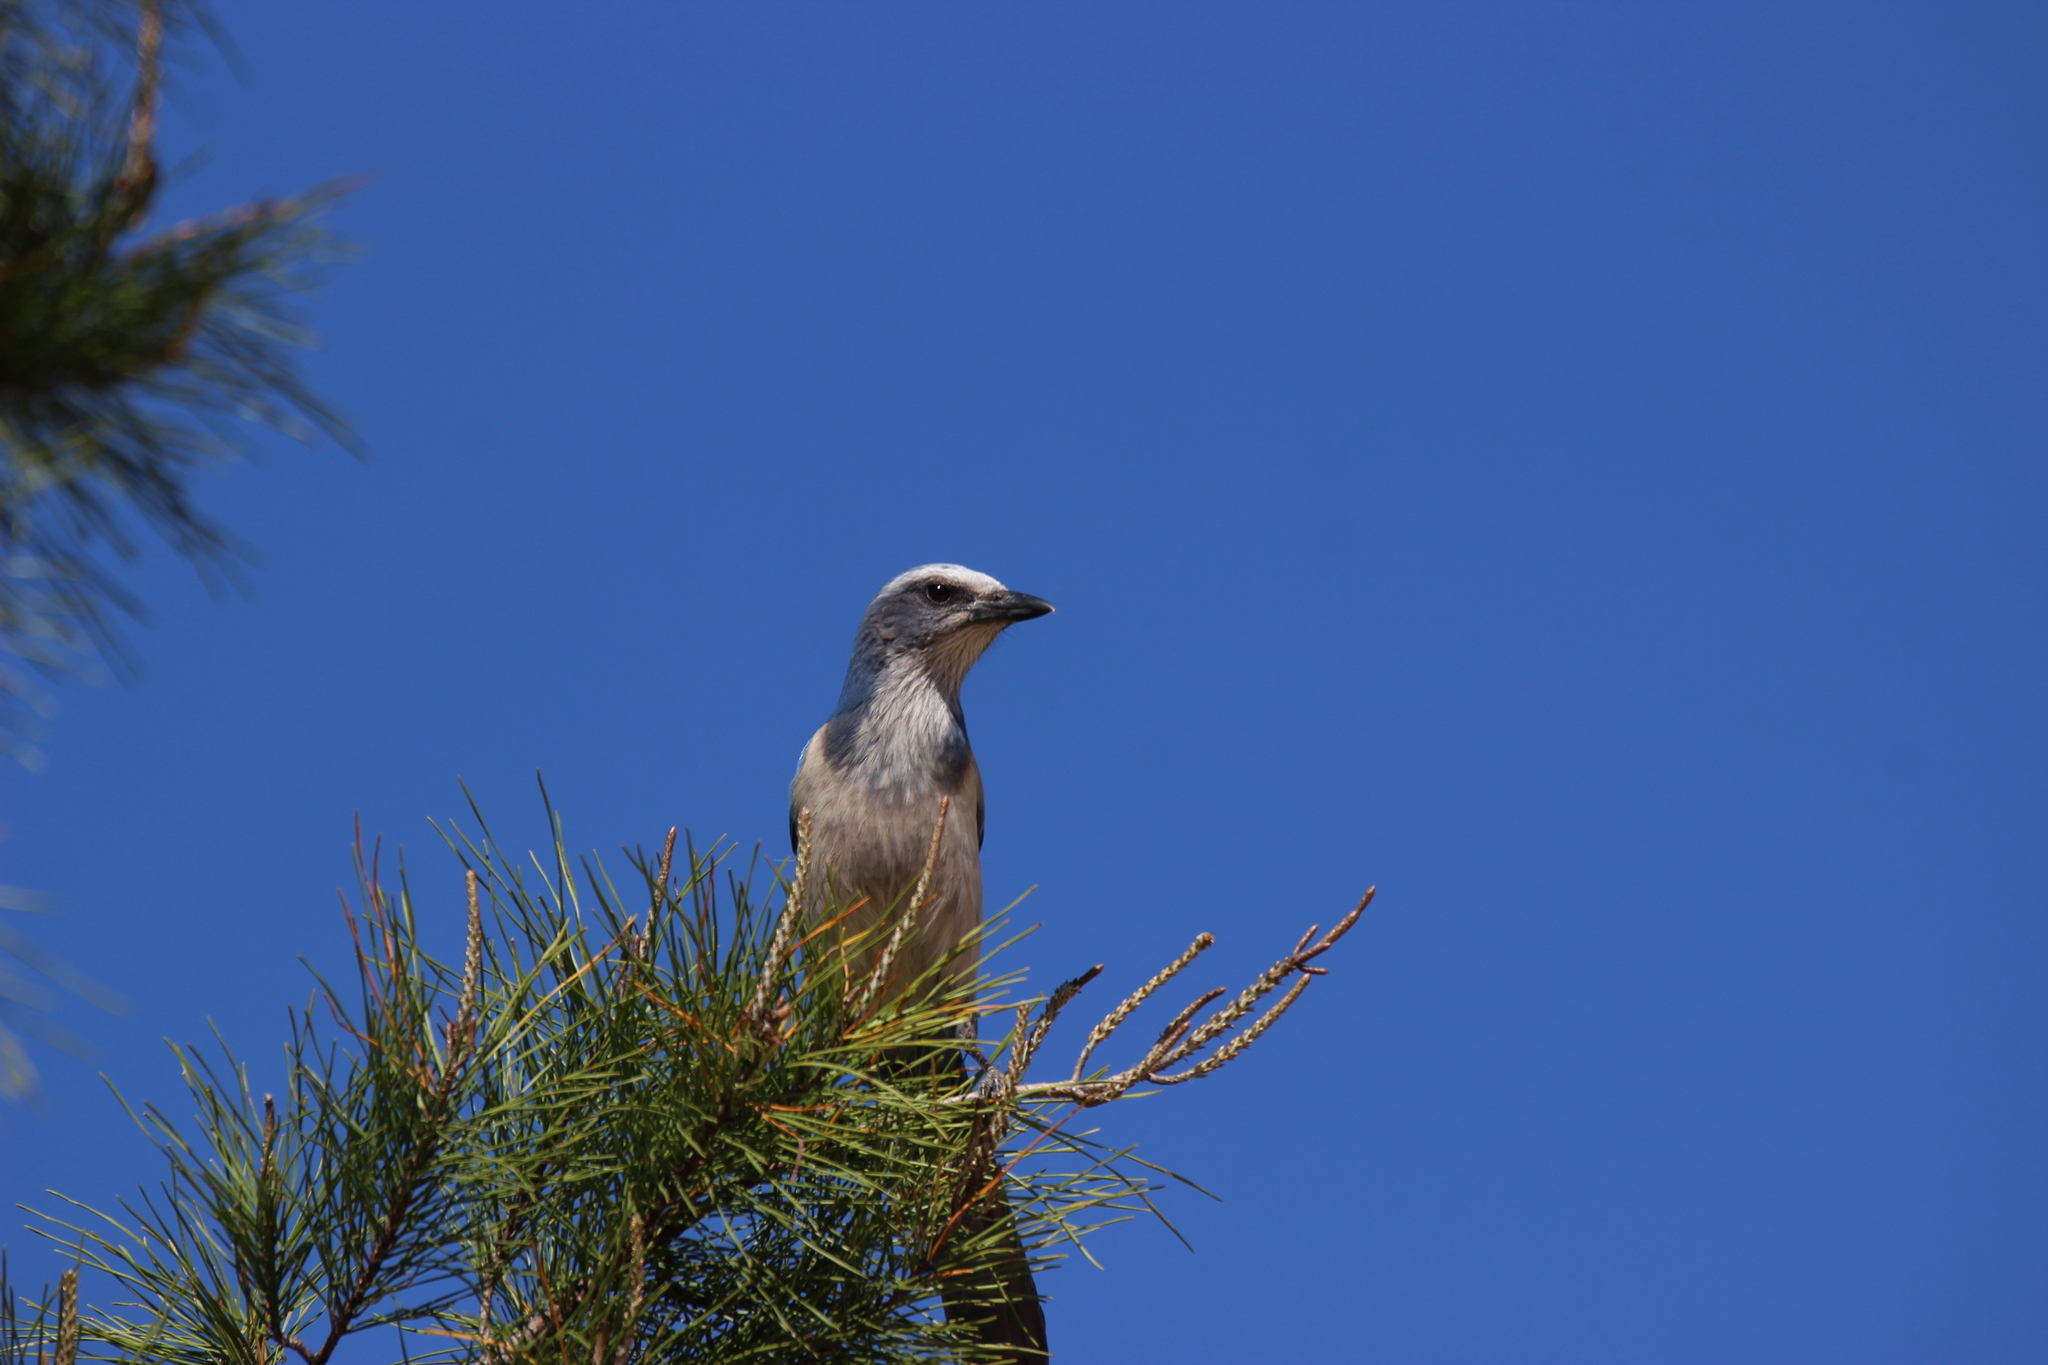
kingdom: Animalia
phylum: Chordata
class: Aves
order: Passeriformes
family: Corvidae
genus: Aphelocoma
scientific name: Aphelocoma coerulescens
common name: Florida scrub jay
